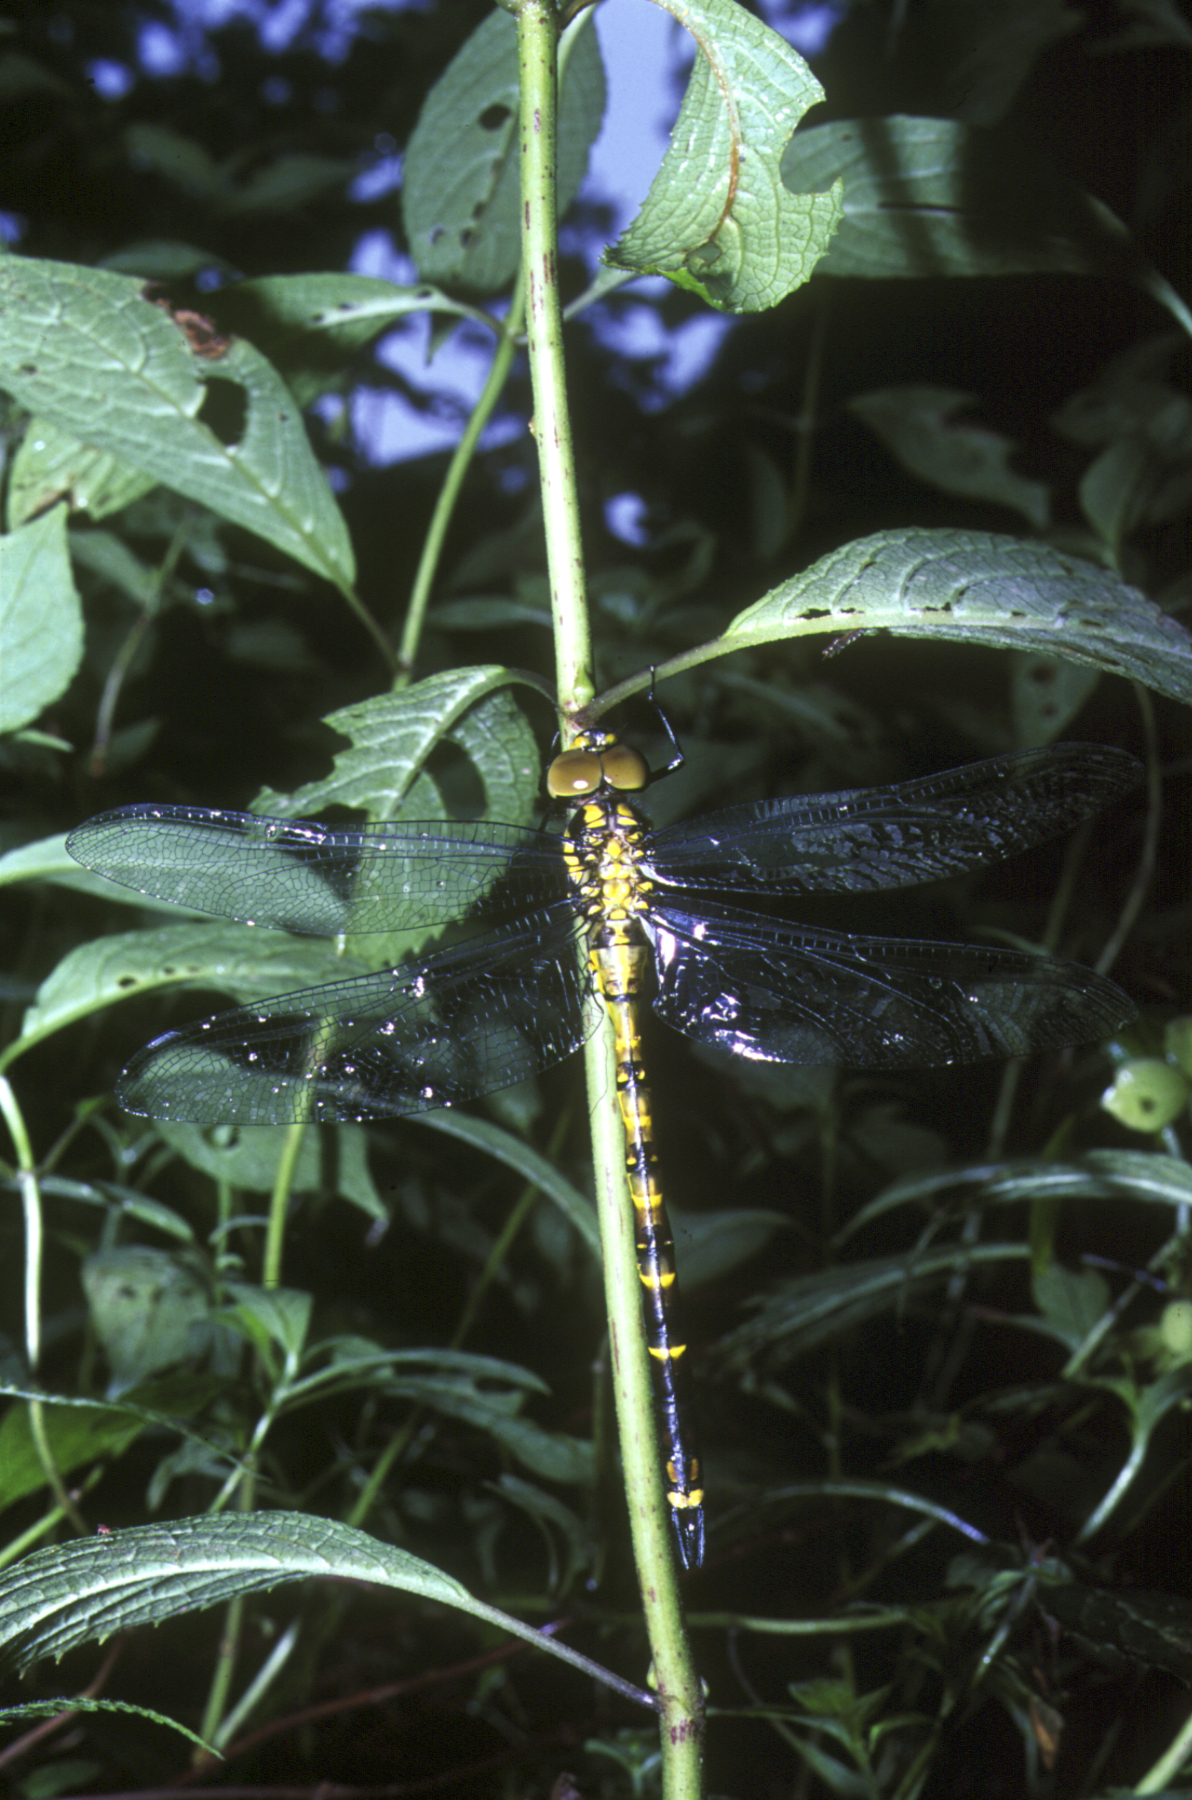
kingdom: Animalia
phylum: Arthropoda
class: Insecta
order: Odonata
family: Aeshnidae
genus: Indaeschna
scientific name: Indaeschna
